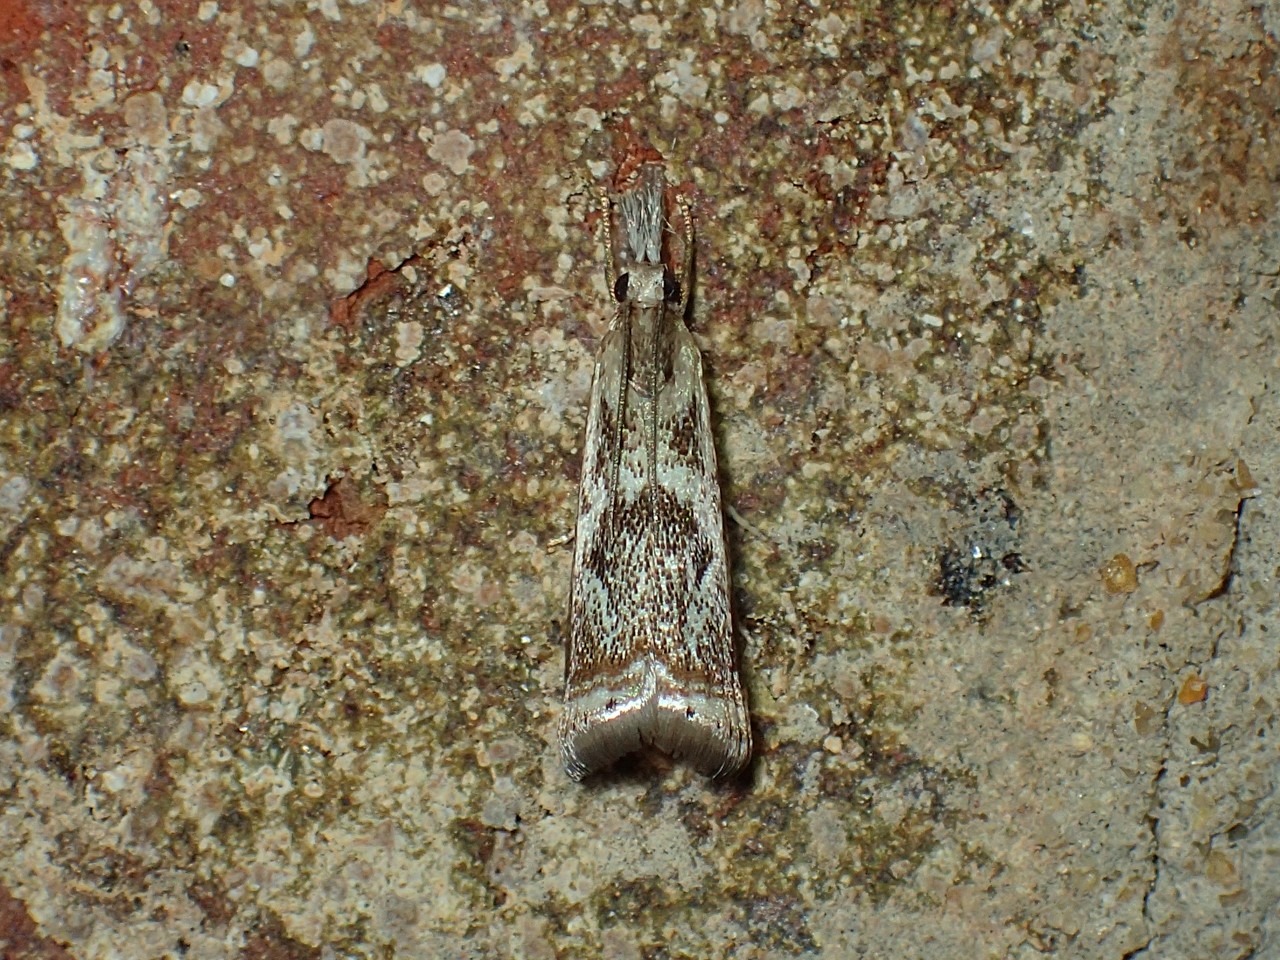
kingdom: Animalia
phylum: Arthropoda
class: Insecta
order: Lepidoptera
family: Crambidae
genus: Microcrambus
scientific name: Microcrambus elegans
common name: Elegant grass-veneer
